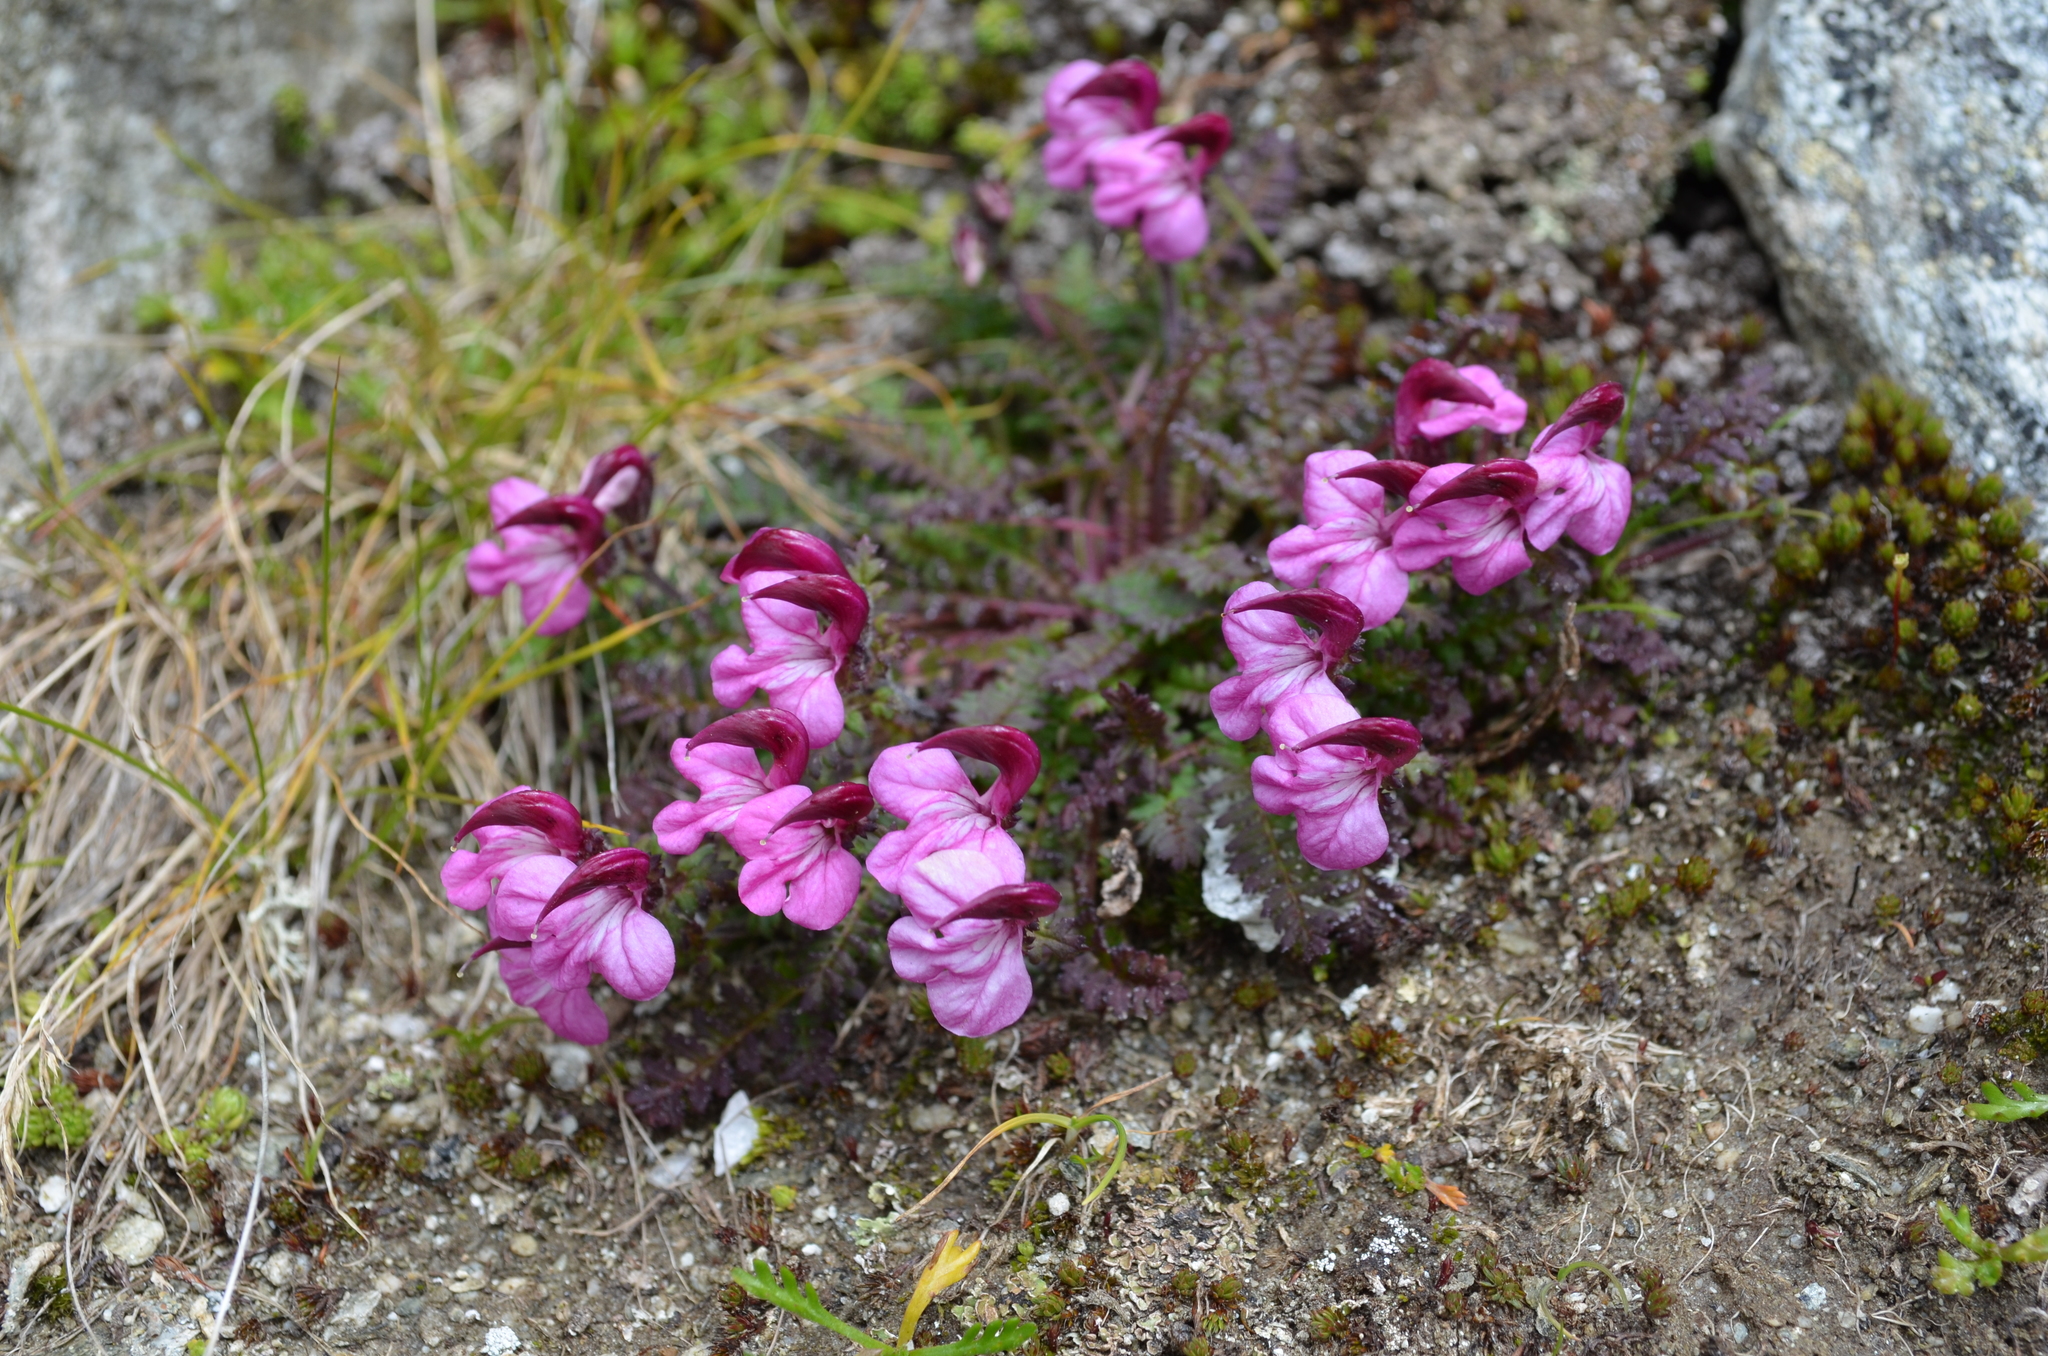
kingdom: Plantae
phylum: Tracheophyta
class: Magnoliopsida
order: Lamiales
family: Orobanchaceae
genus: Pedicularis
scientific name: Pedicularis kerneri
